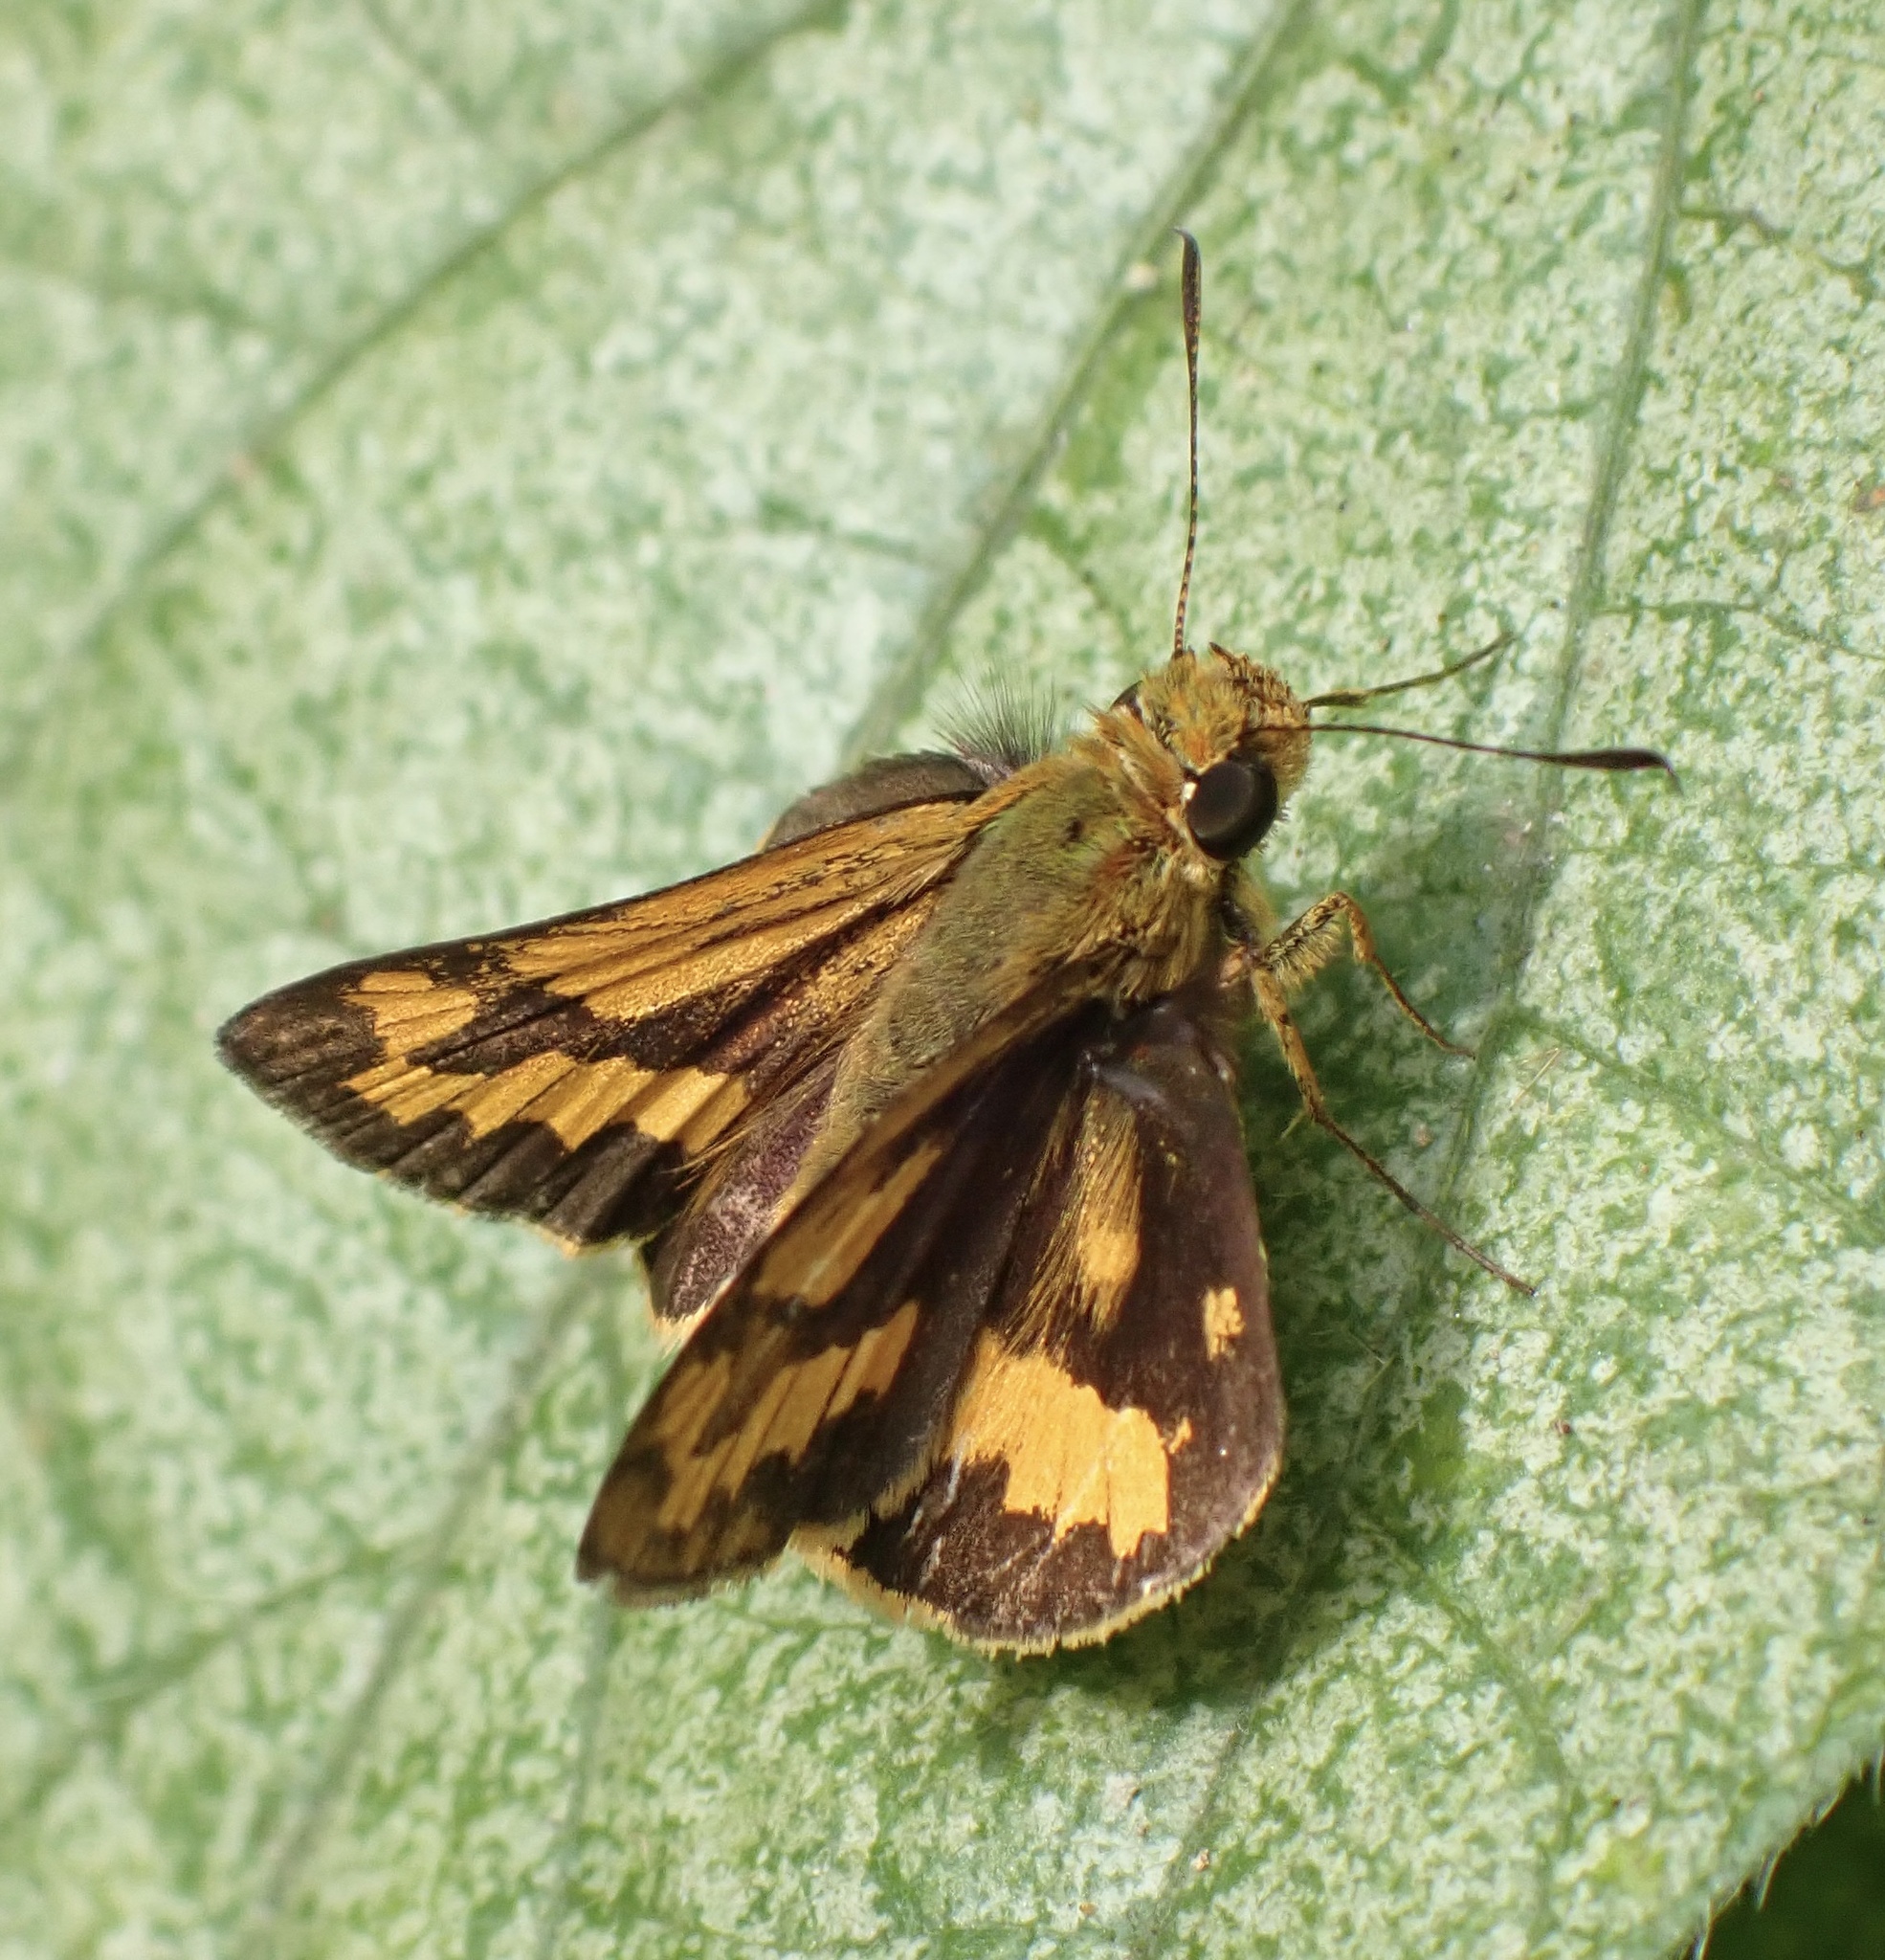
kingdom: Animalia
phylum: Arthropoda
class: Insecta
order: Lepidoptera
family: Hesperiidae
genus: Taractrocera
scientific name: Taractrocera
